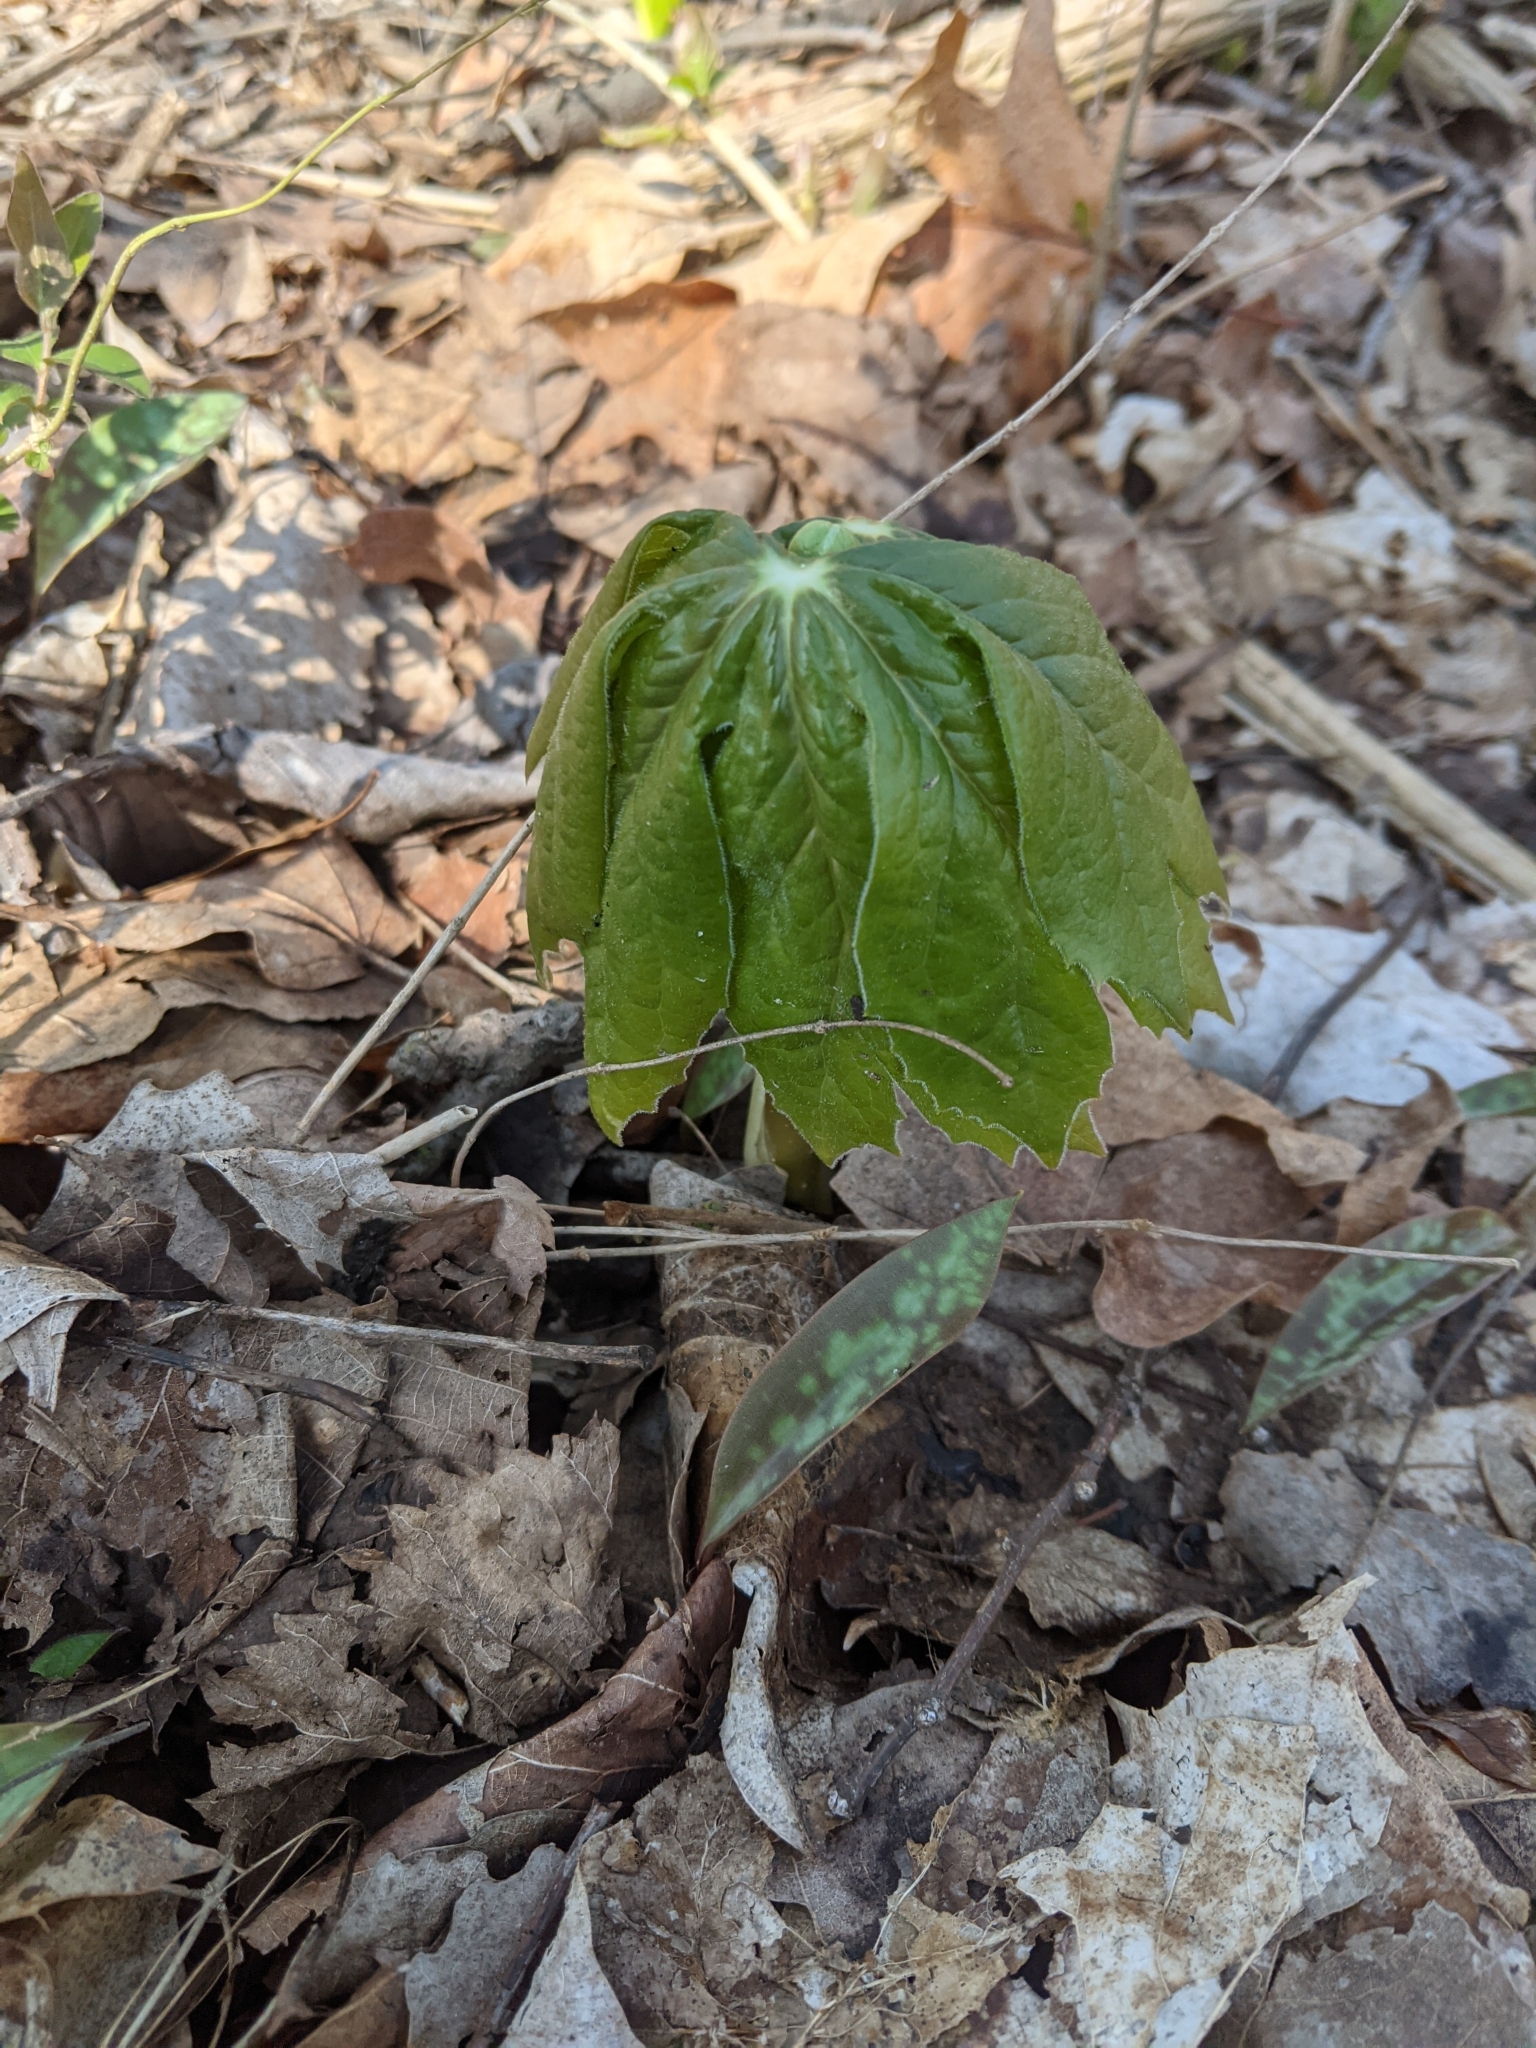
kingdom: Plantae
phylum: Tracheophyta
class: Magnoliopsida
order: Ranunculales
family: Berberidaceae
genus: Podophyllum
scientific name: Podophyllum peltatum
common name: Wild mandrake
